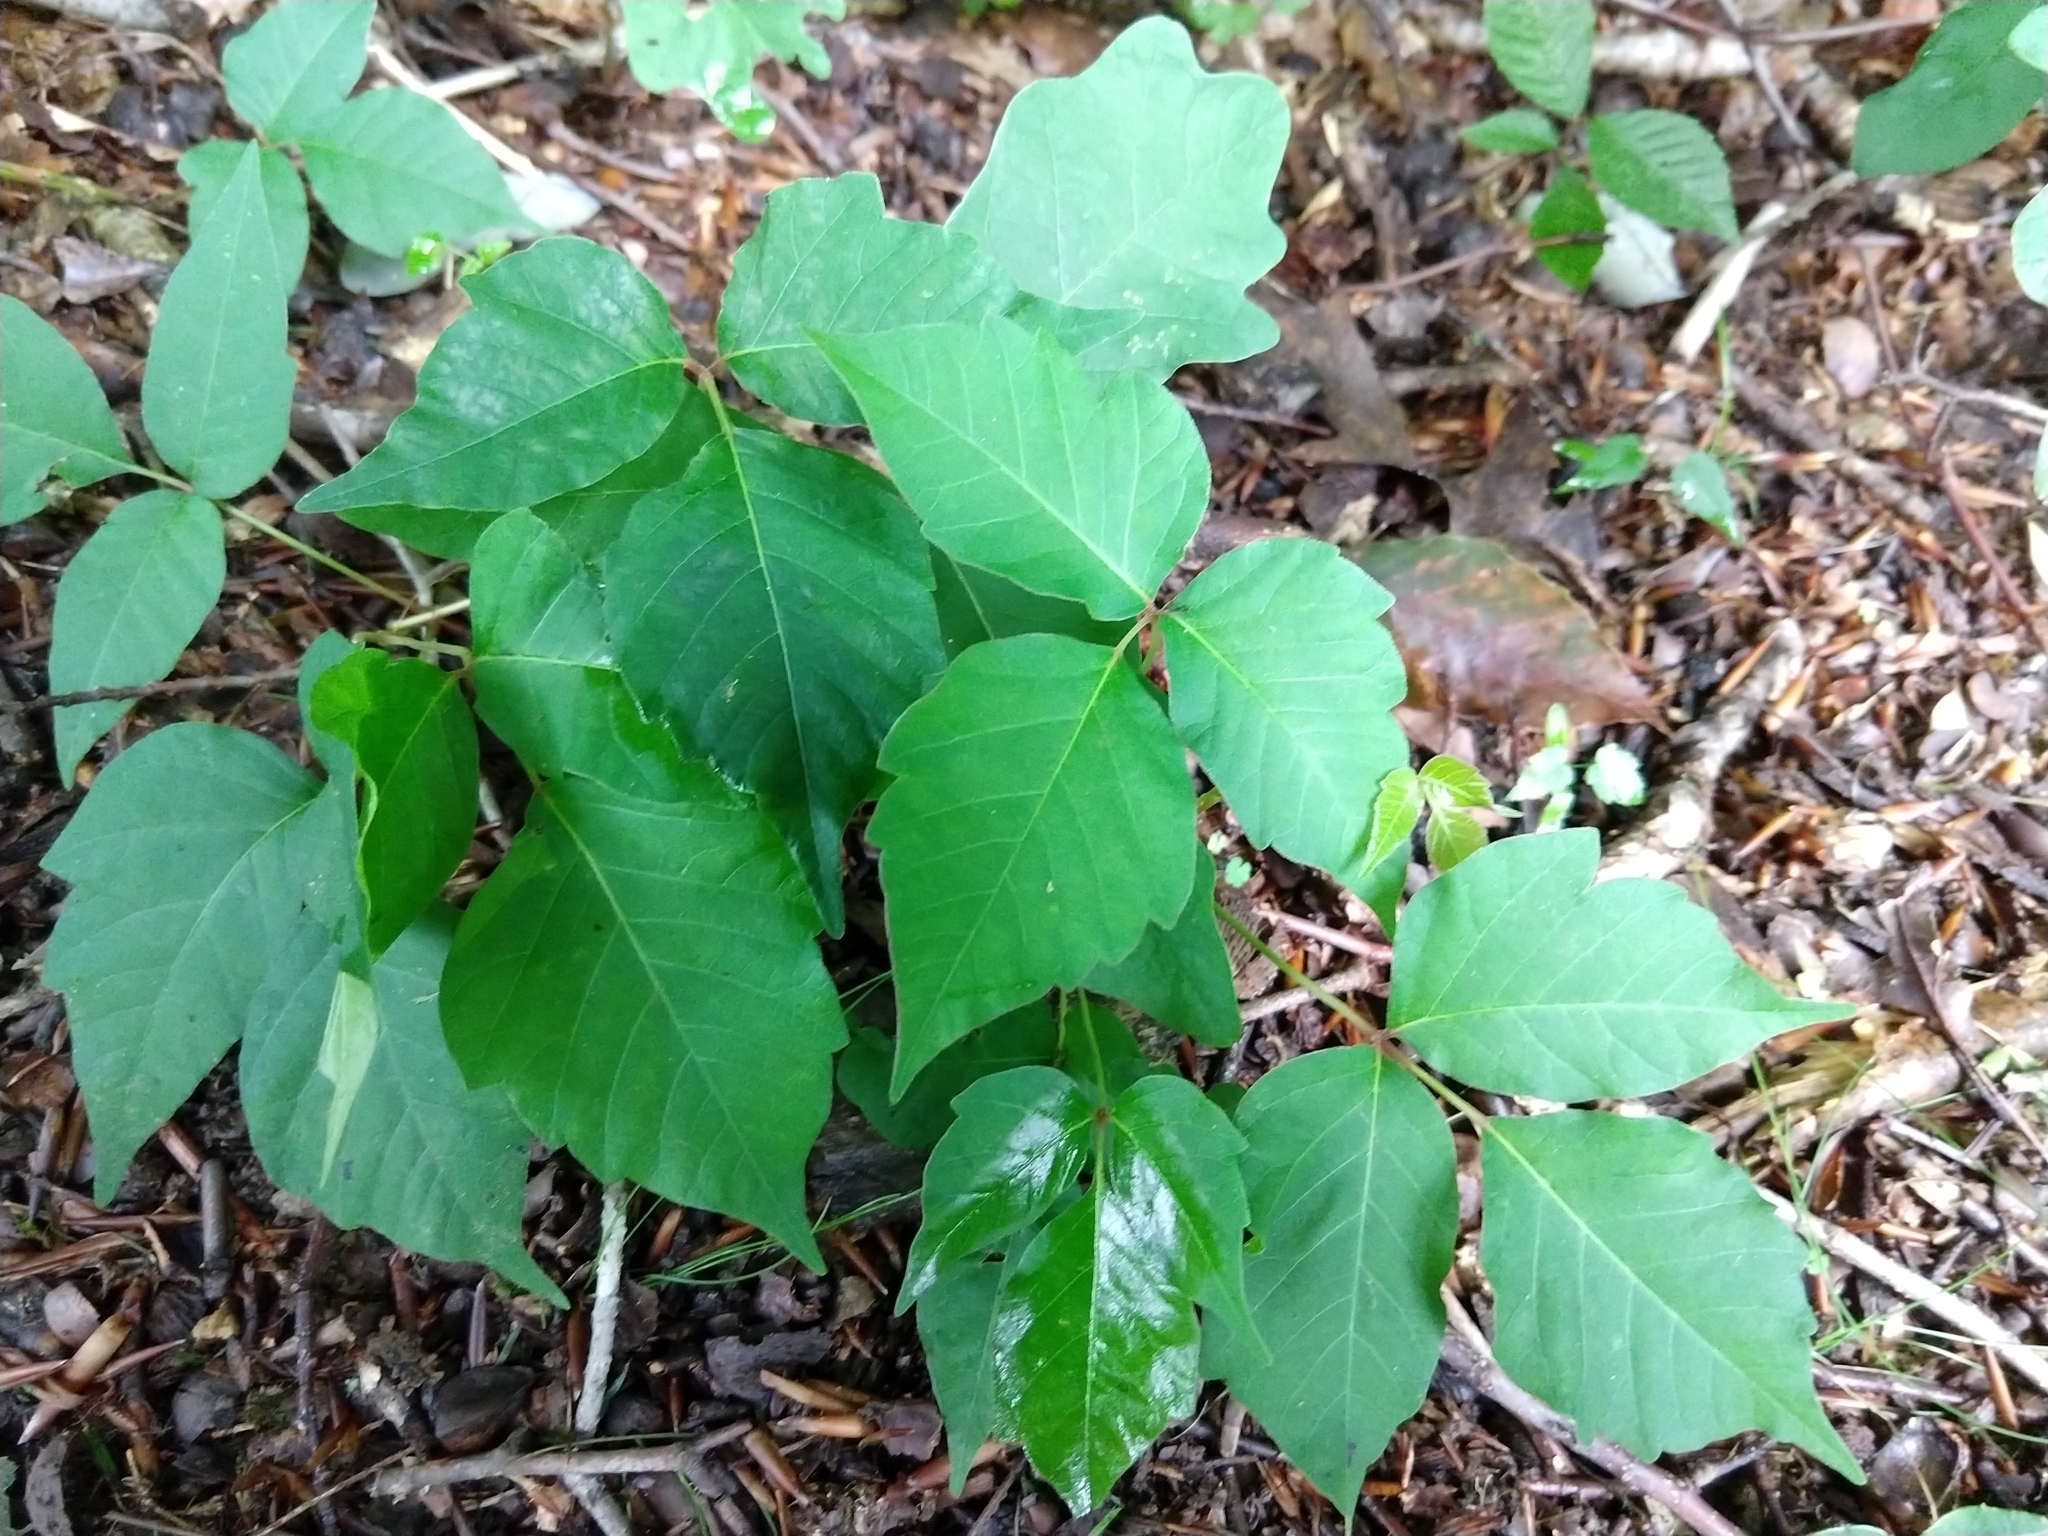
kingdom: Plantae
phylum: Tracheophyta
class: Magnoliopsida
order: Sapindales
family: Anacardiaceae
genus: Toxicodendron
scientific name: Toxicodendron radicans
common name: Poison ivy
